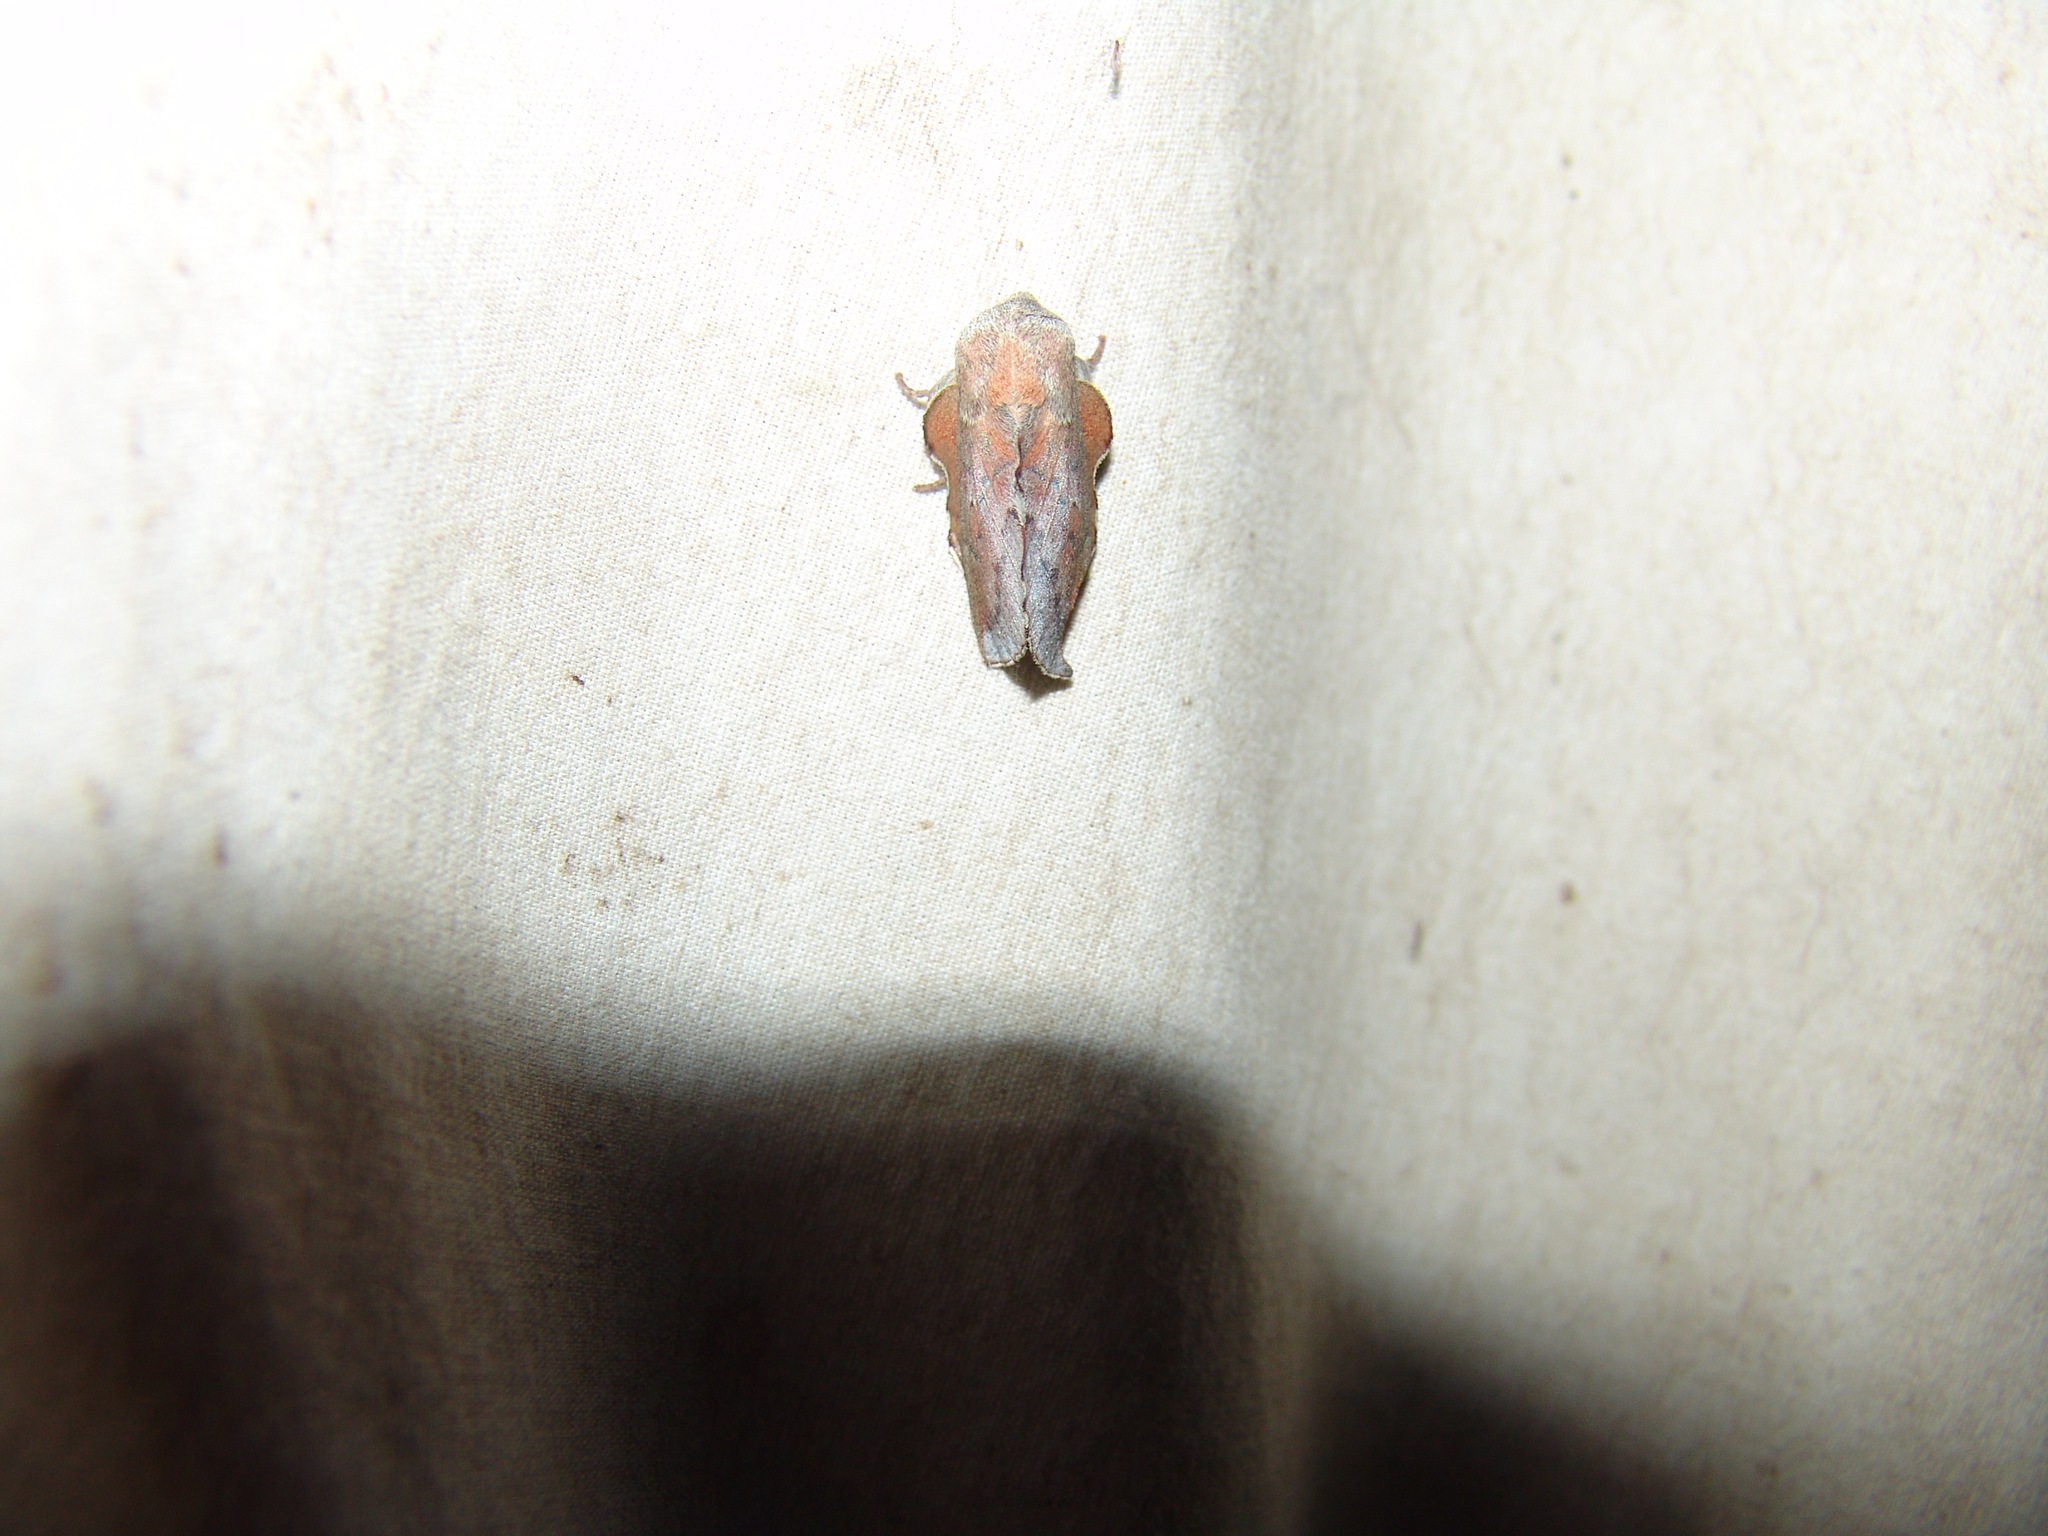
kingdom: Animalia
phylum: Arthropoda
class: Insecta
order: Lepidoptera
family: Lasiocampidae
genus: Phyllodesma
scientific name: Phyllodesma americana
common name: American lappet moth
